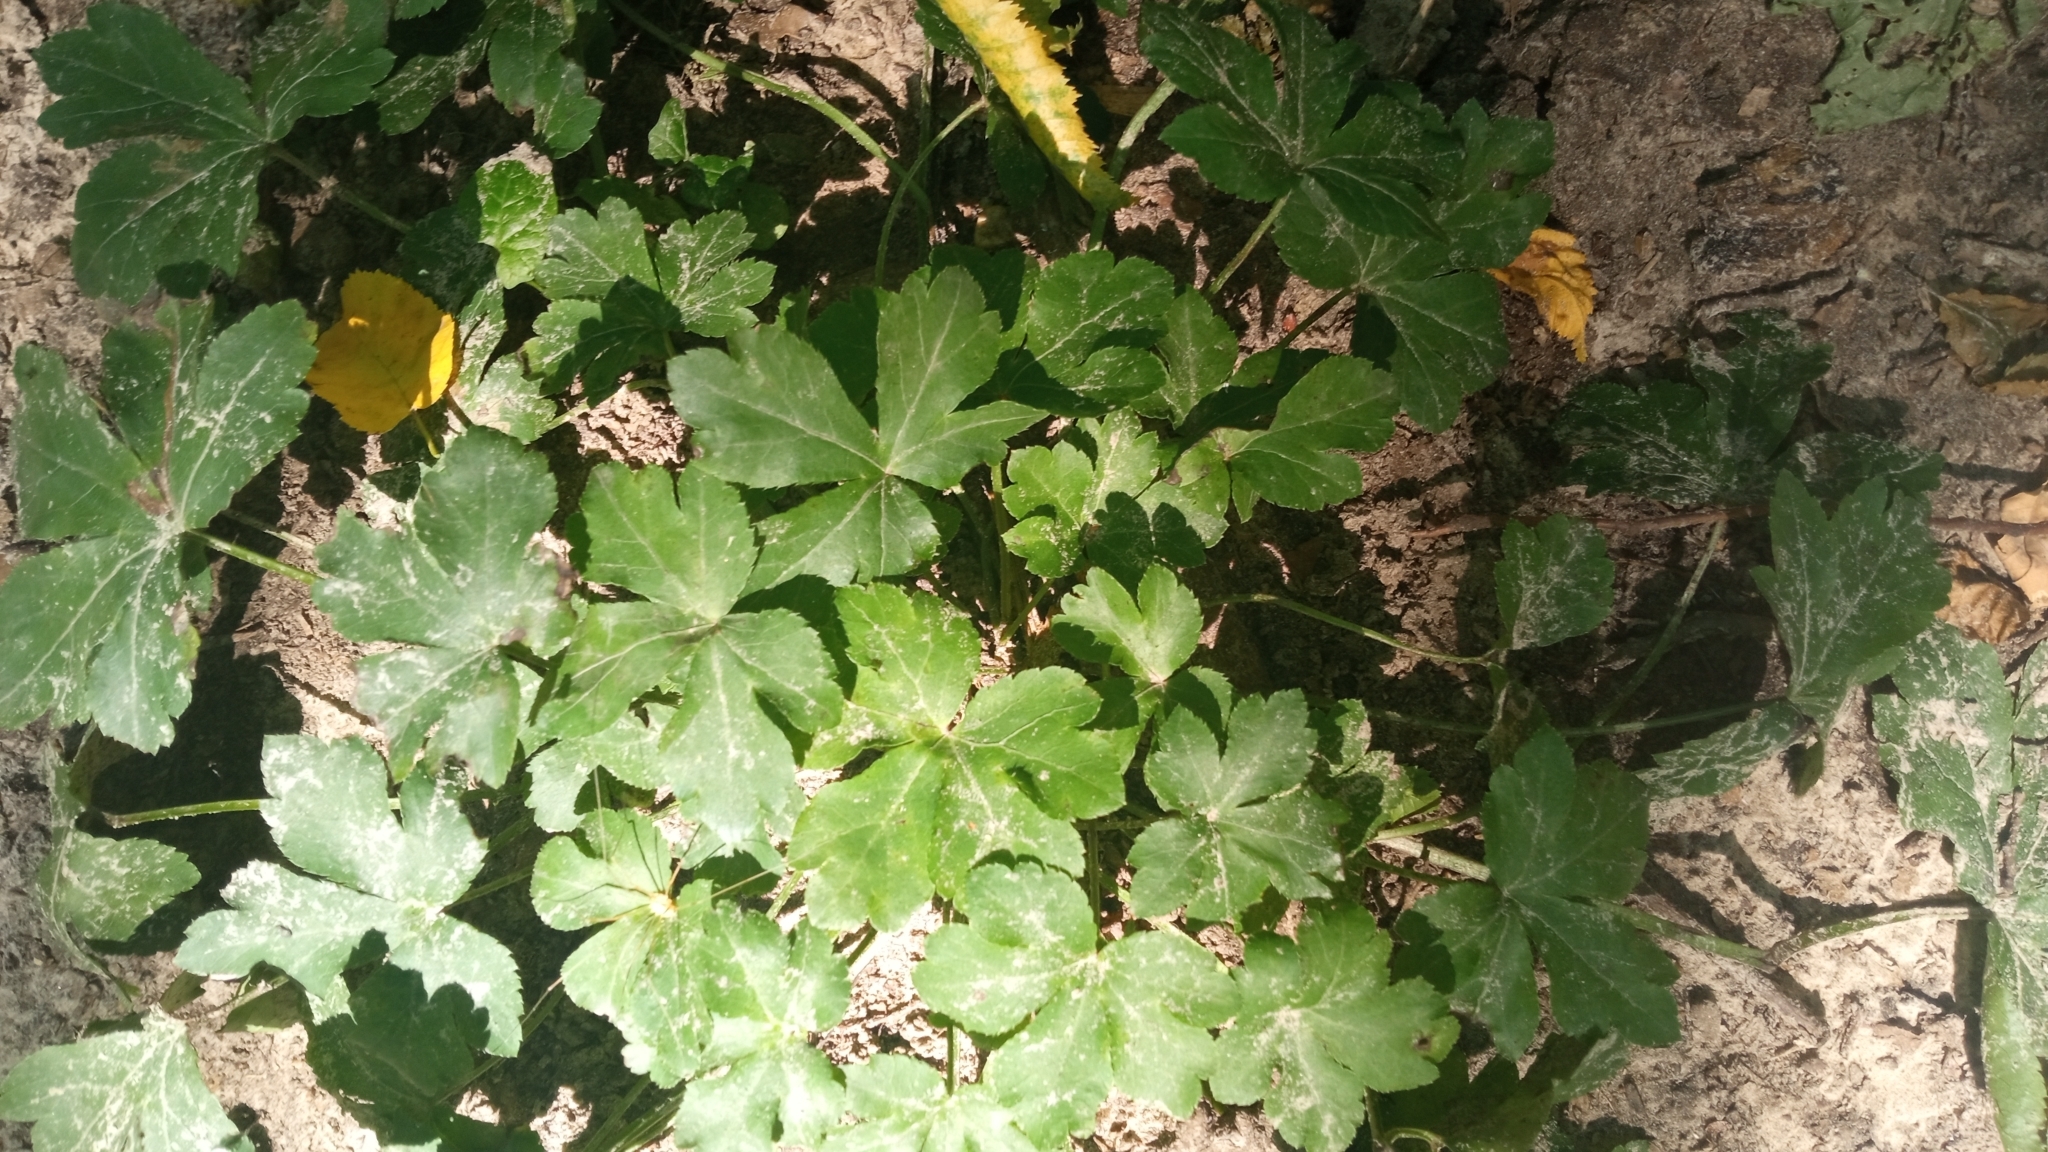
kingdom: Plantae
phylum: Tracheophyta
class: Magnoliopsida
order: Apiales
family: Apiaceae
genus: Sanicula
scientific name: Sanicula europaea
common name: Sanicle
